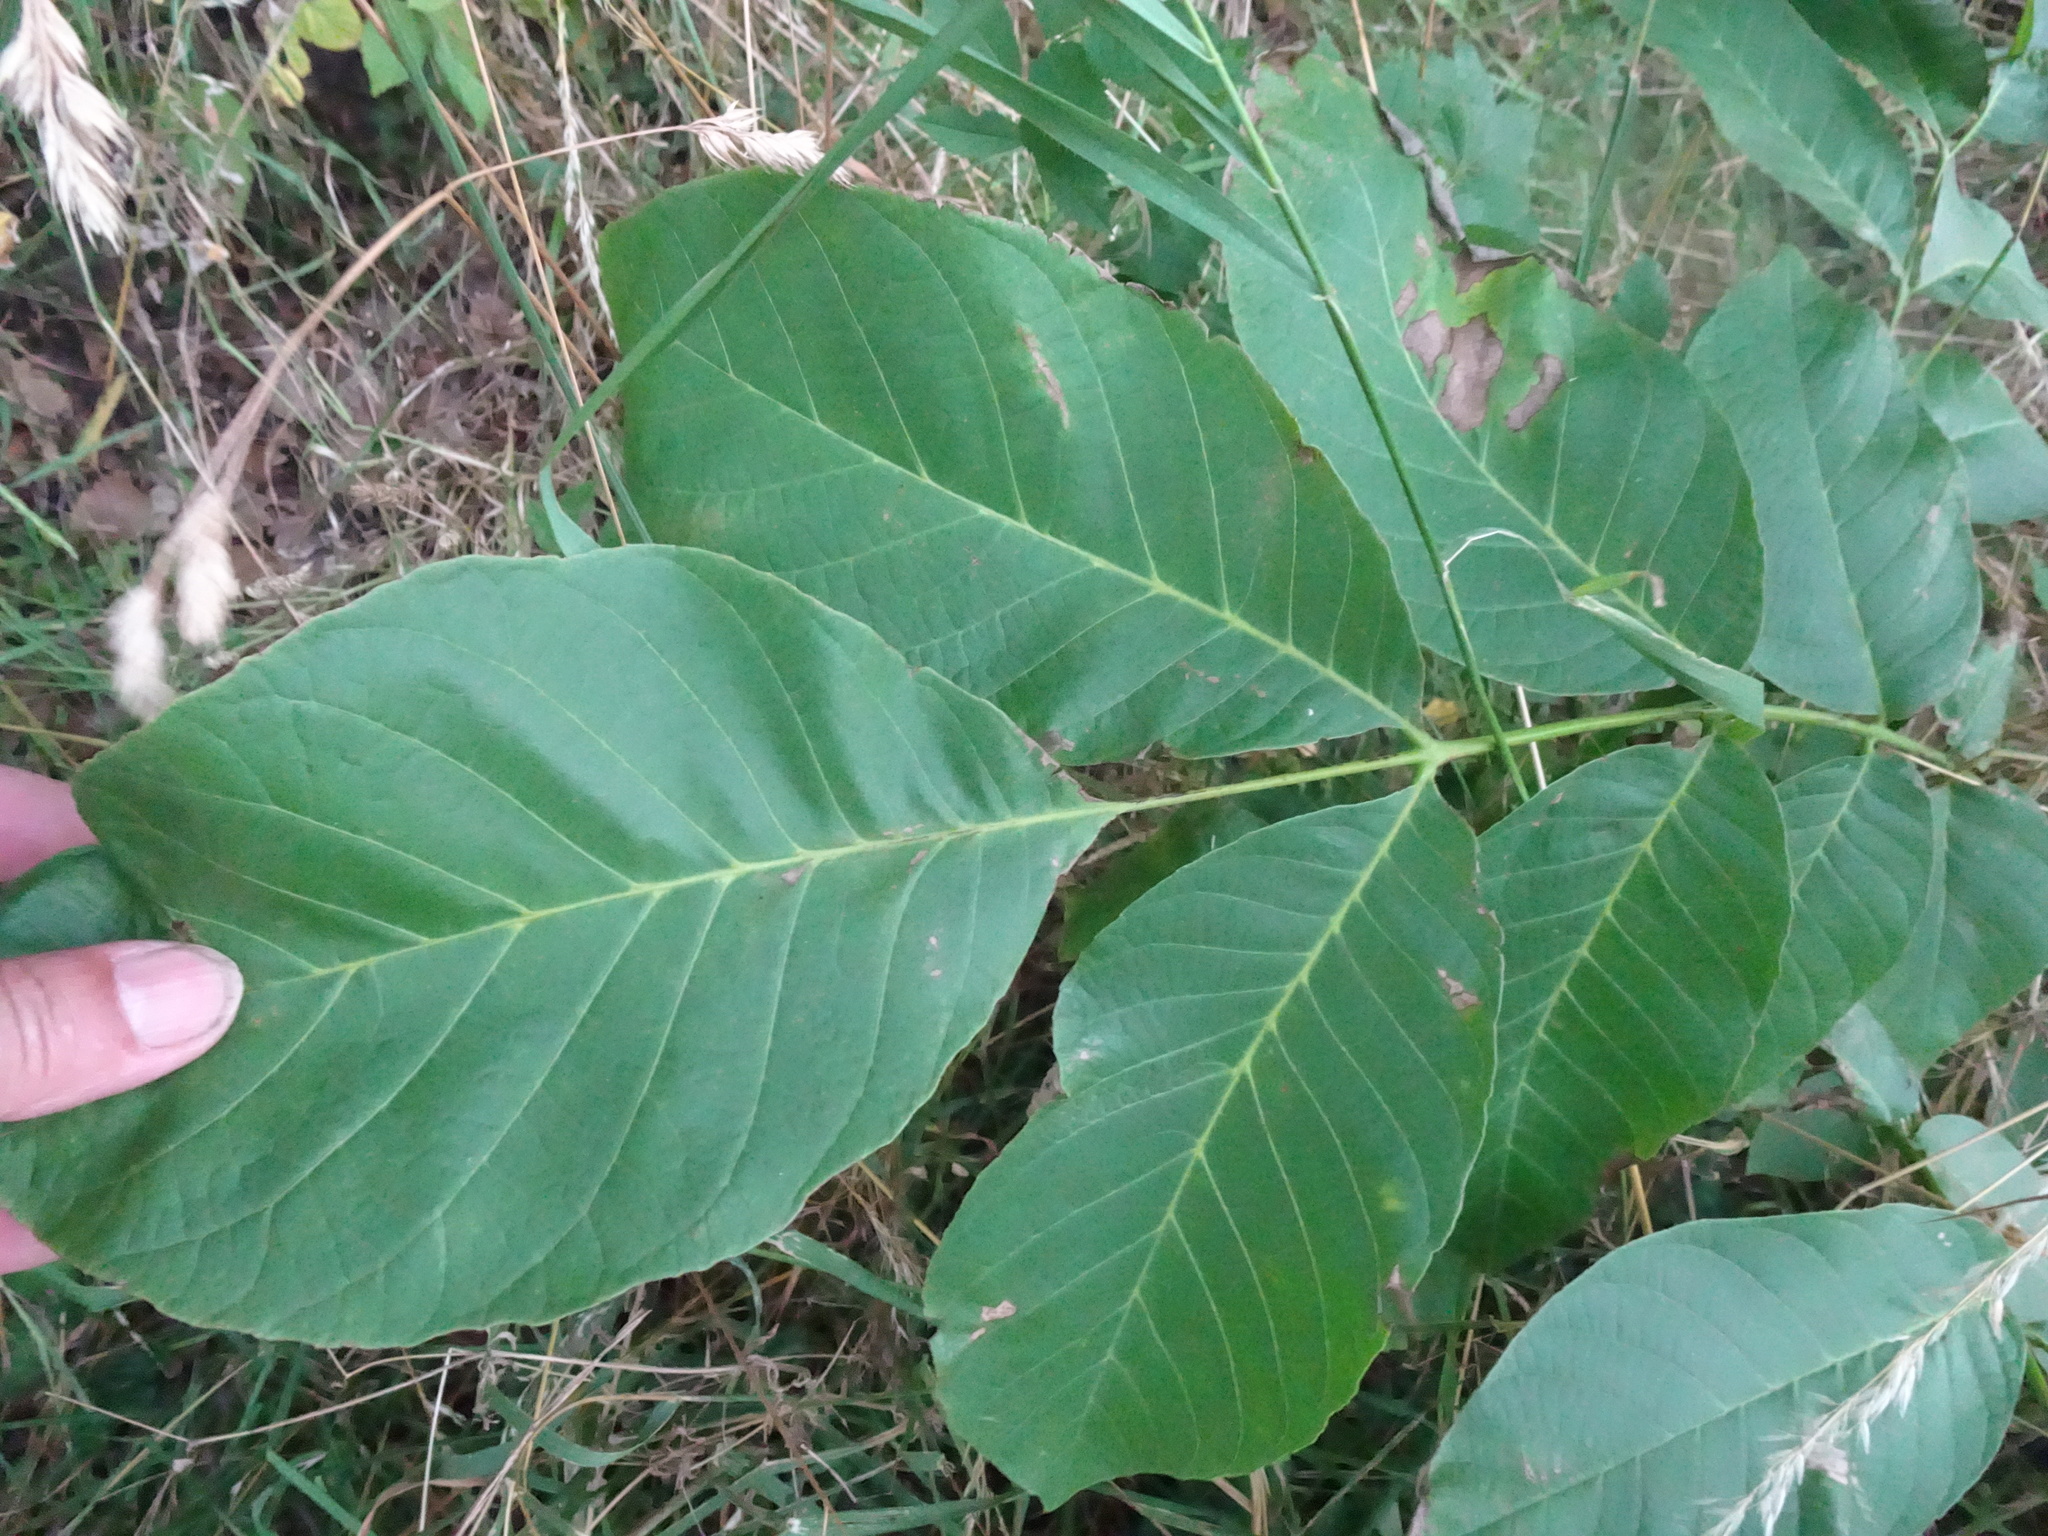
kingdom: Plantae
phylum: Tracheophyta
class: Magnoliopsida
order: Fagales
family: Juglandaceae
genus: Juglans
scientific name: Juglans regia
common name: Walnut
